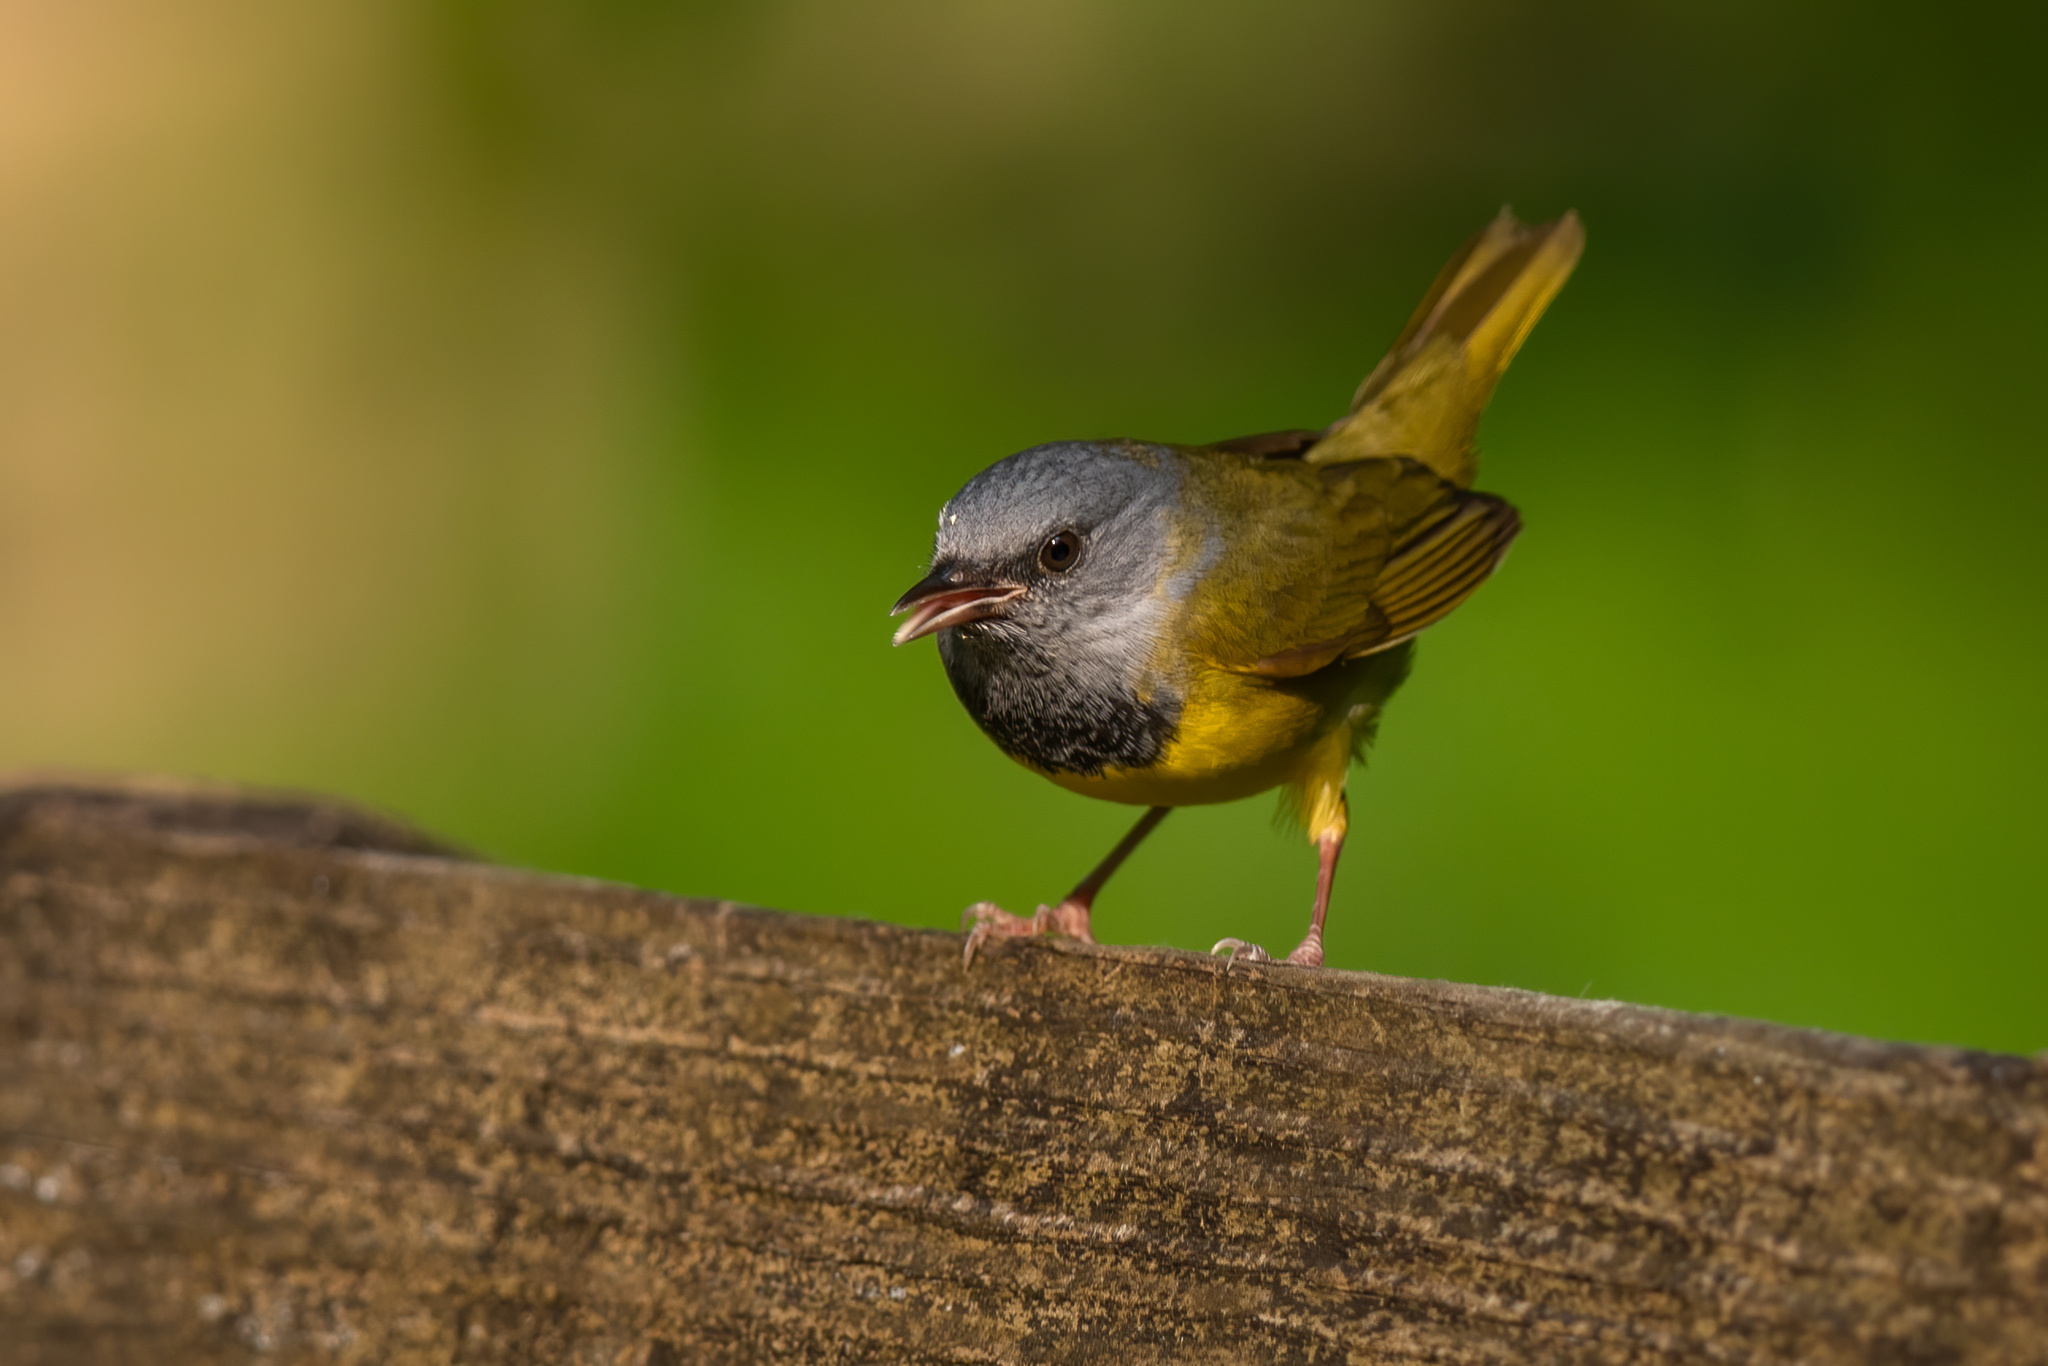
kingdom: Animalia
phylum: Chordata
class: Aves
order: Passeriformes
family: Parulidae
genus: Geothlypis
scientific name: Geothlypis philadelphia
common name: Mourning warbler
